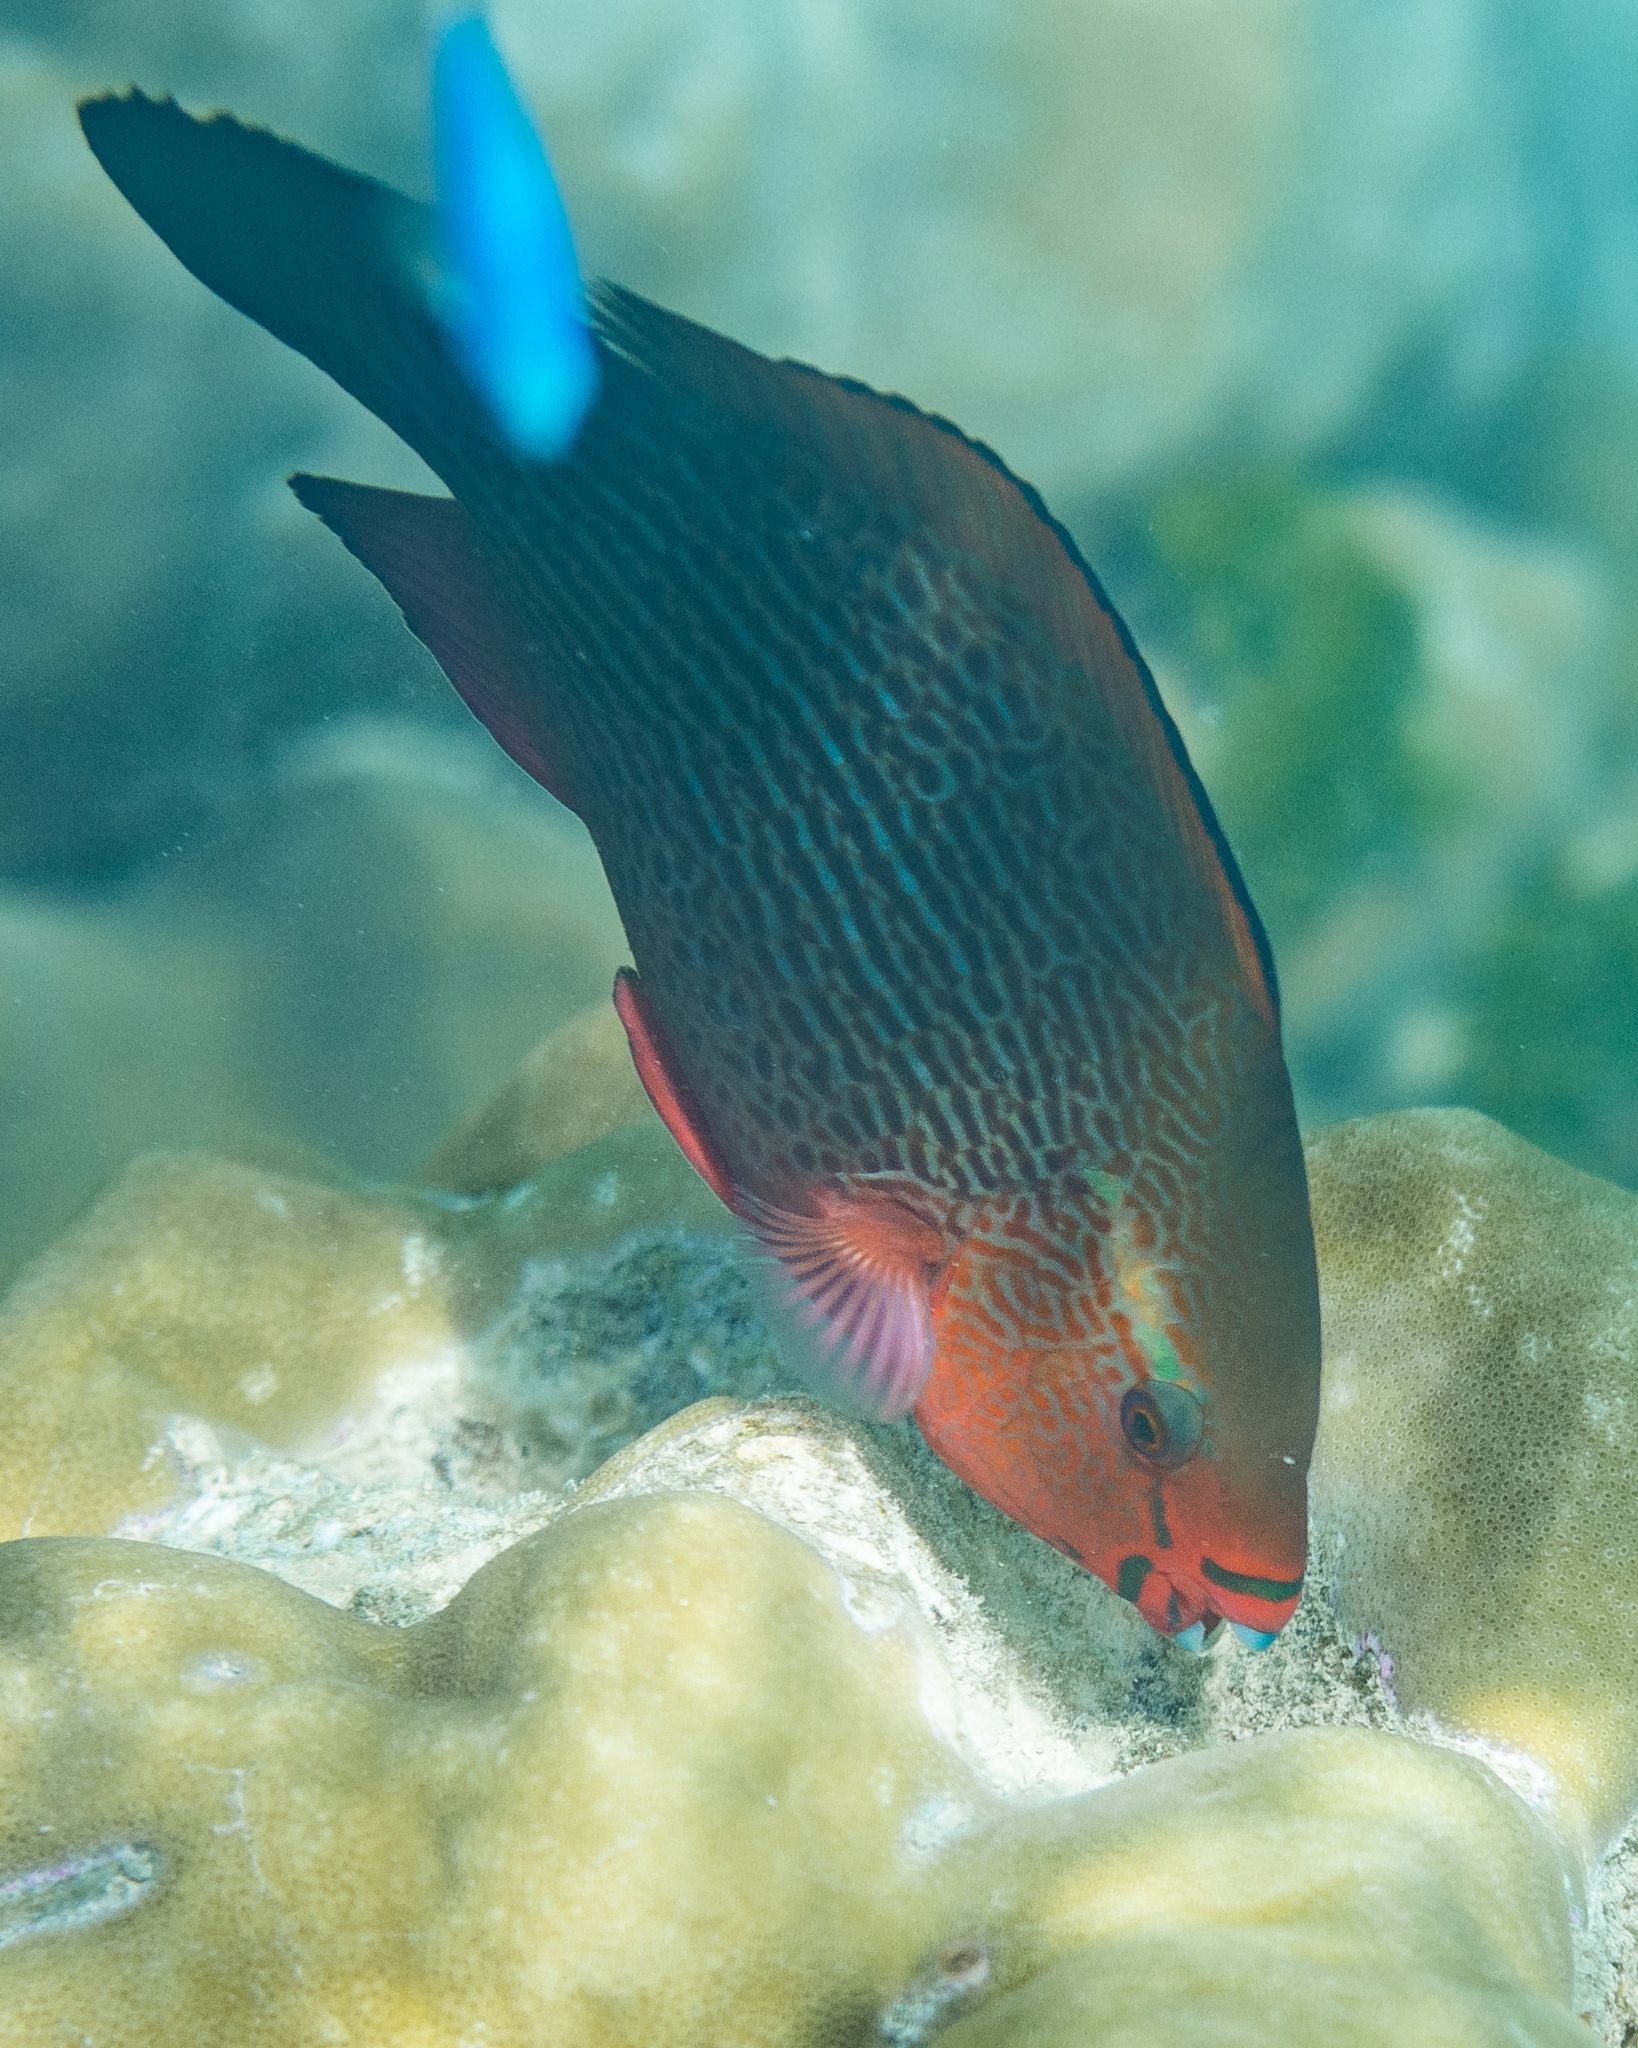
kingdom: Animalia
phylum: Chordata
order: Perciformes
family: Scaridae
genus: Scarus
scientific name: Scarus niger
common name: Dusky parrotfish
